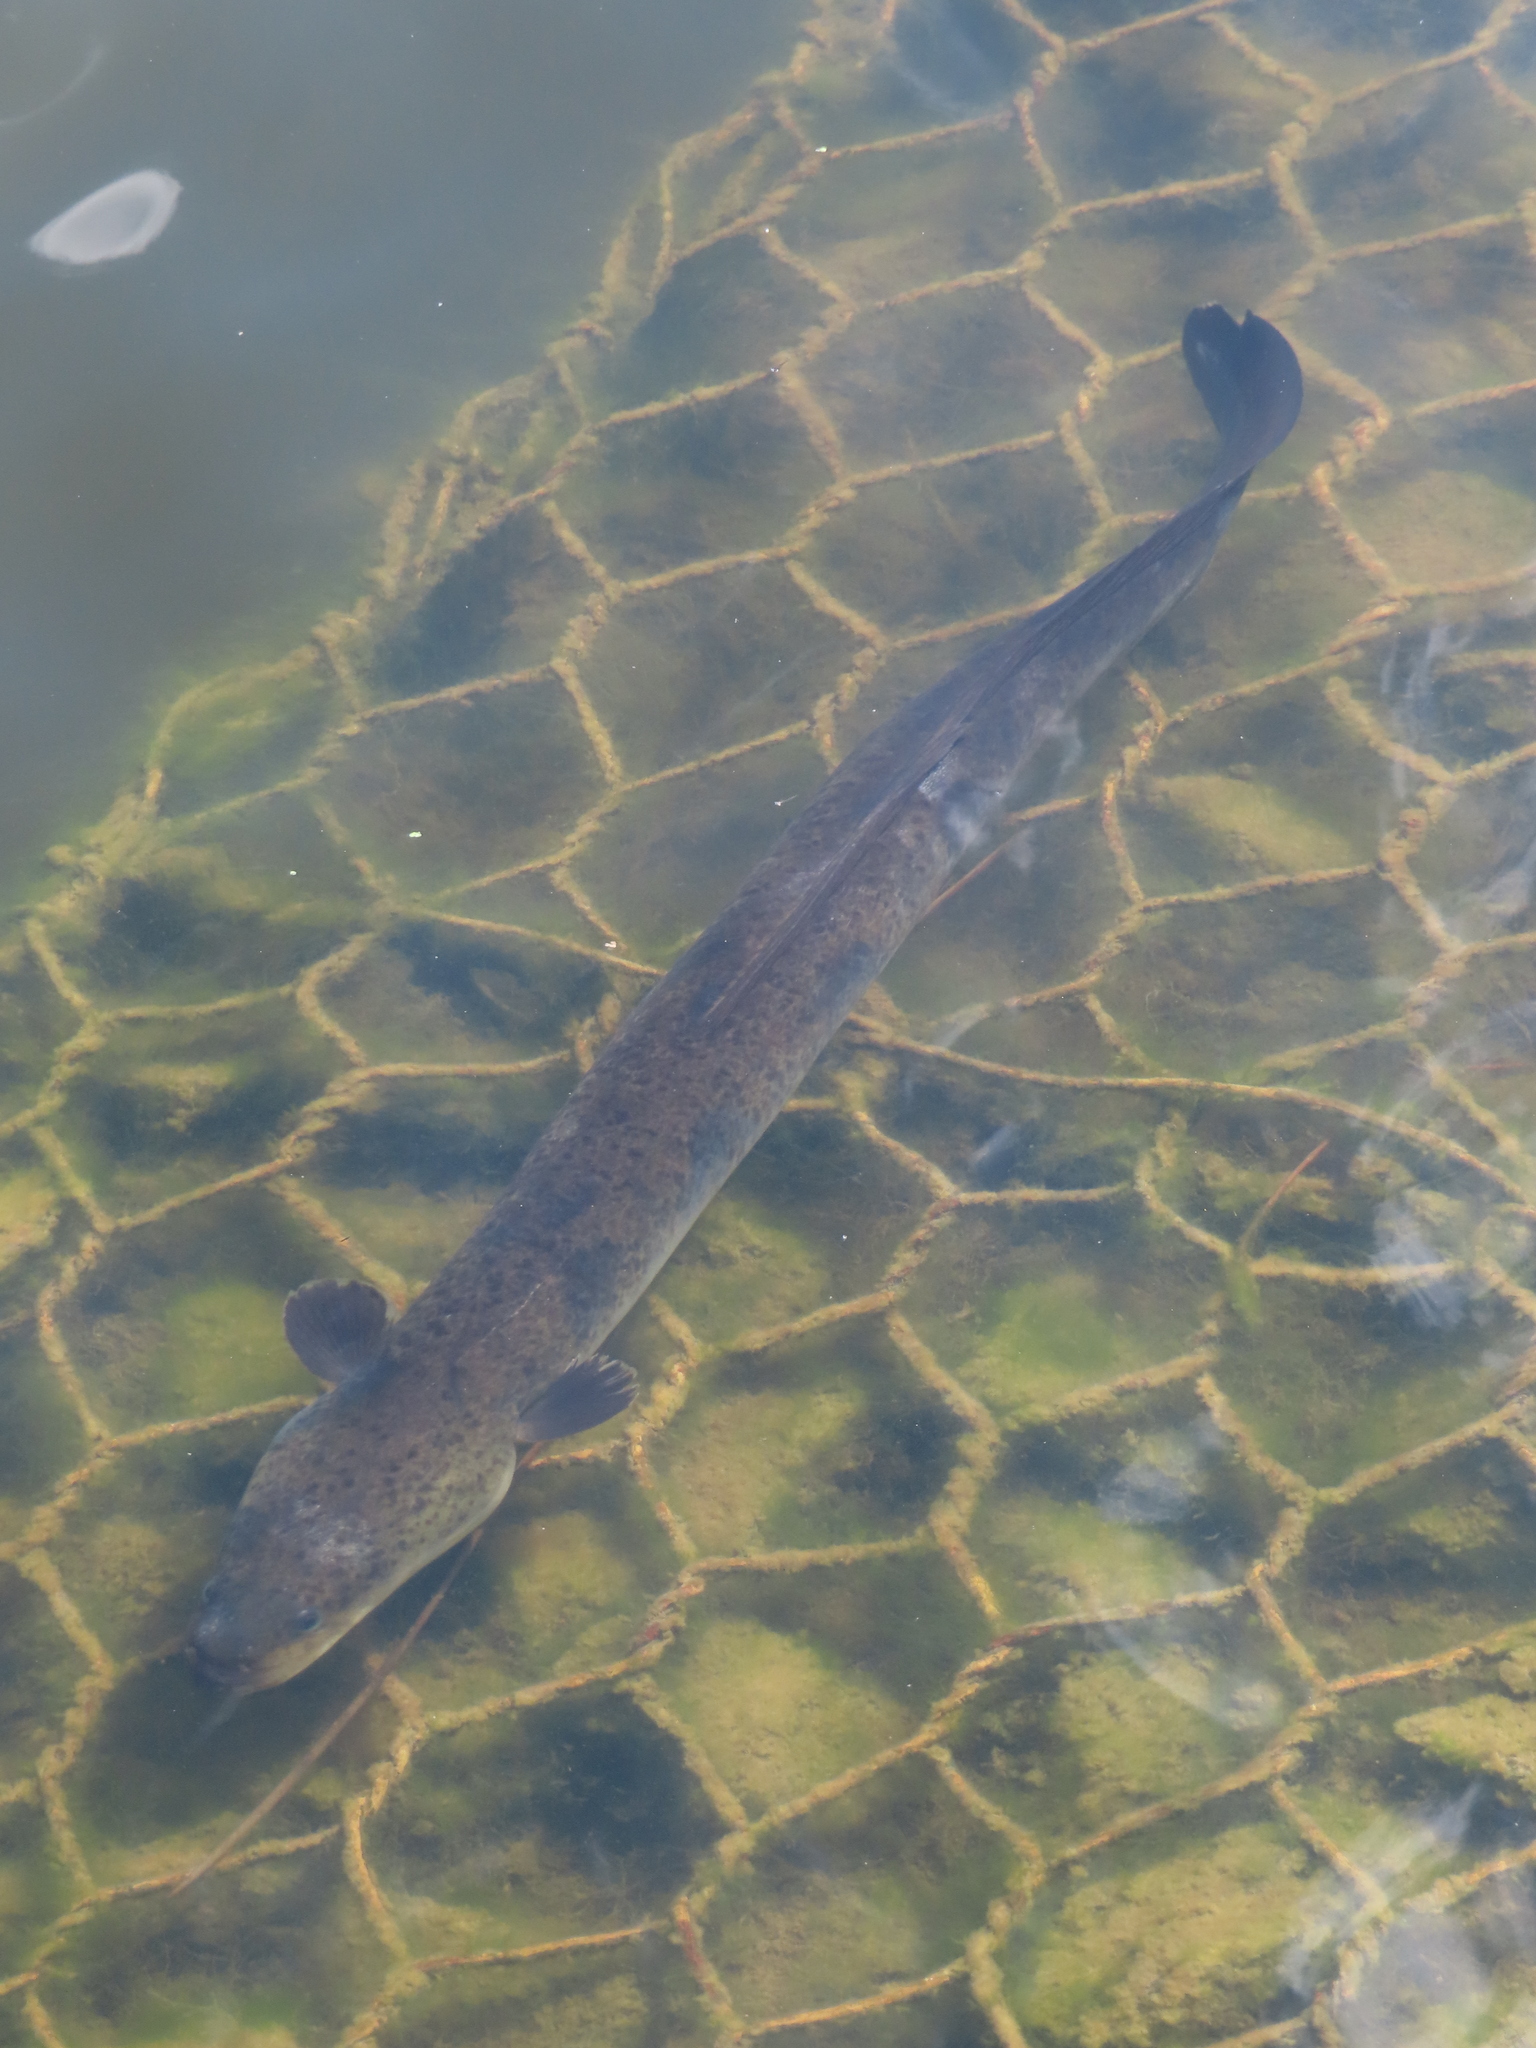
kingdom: Animalia
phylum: Chordata
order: Anguilliformes
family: Anguillidae
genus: Anguilla
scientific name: Anguilla reinhardtii
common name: Longfin eel
